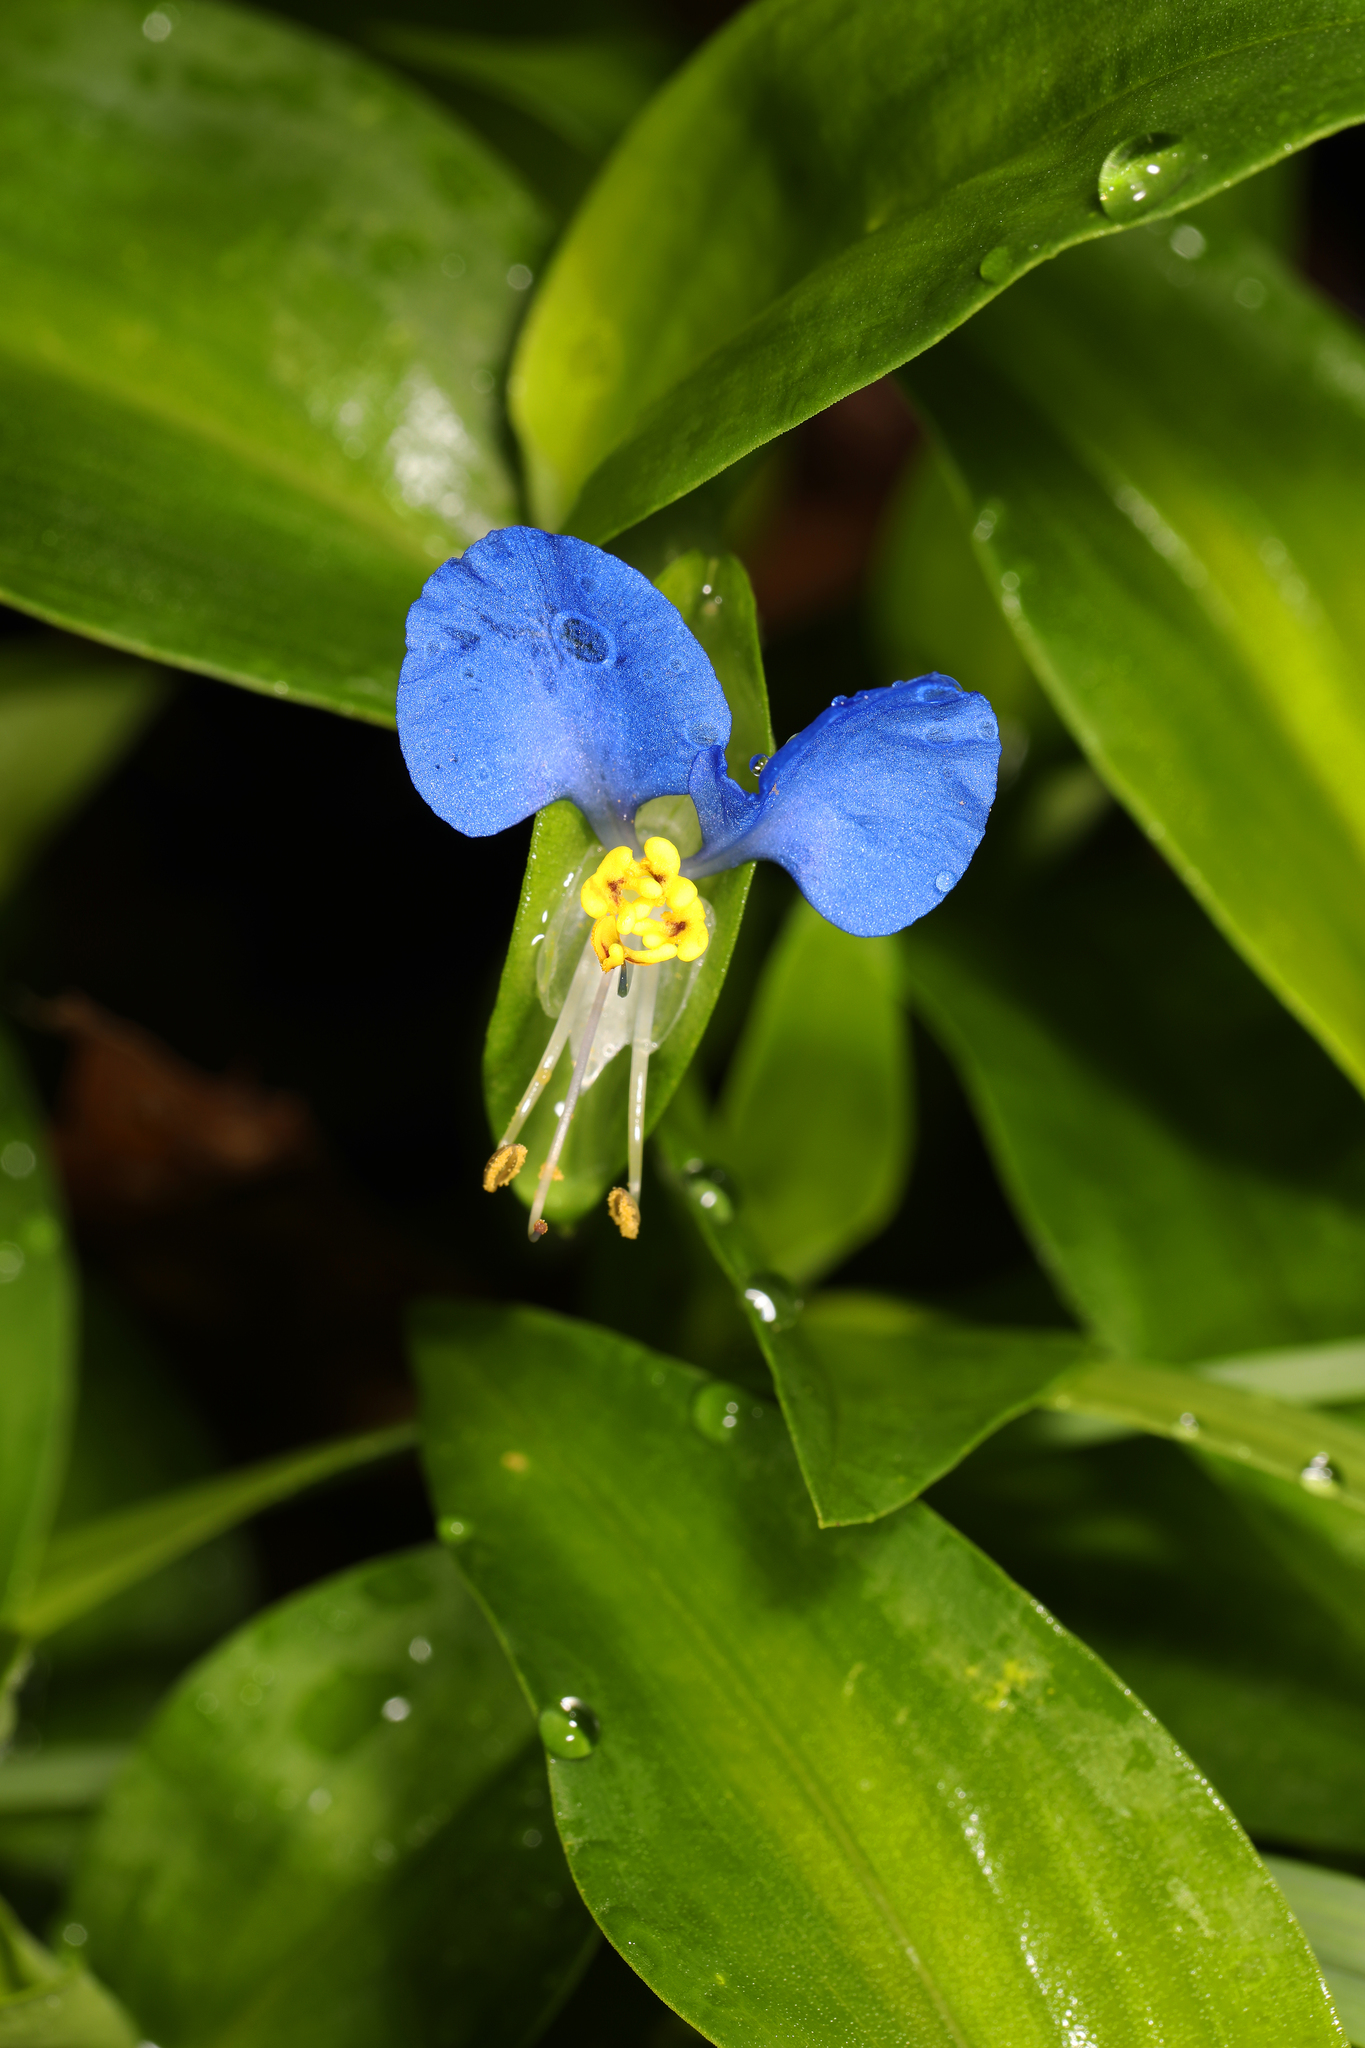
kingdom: Plantae
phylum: Tracheophyta
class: Liliopsida
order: Commelinales
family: Commelinaceae
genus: Commelina
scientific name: Commelina communis
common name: Asiatic dayflower
